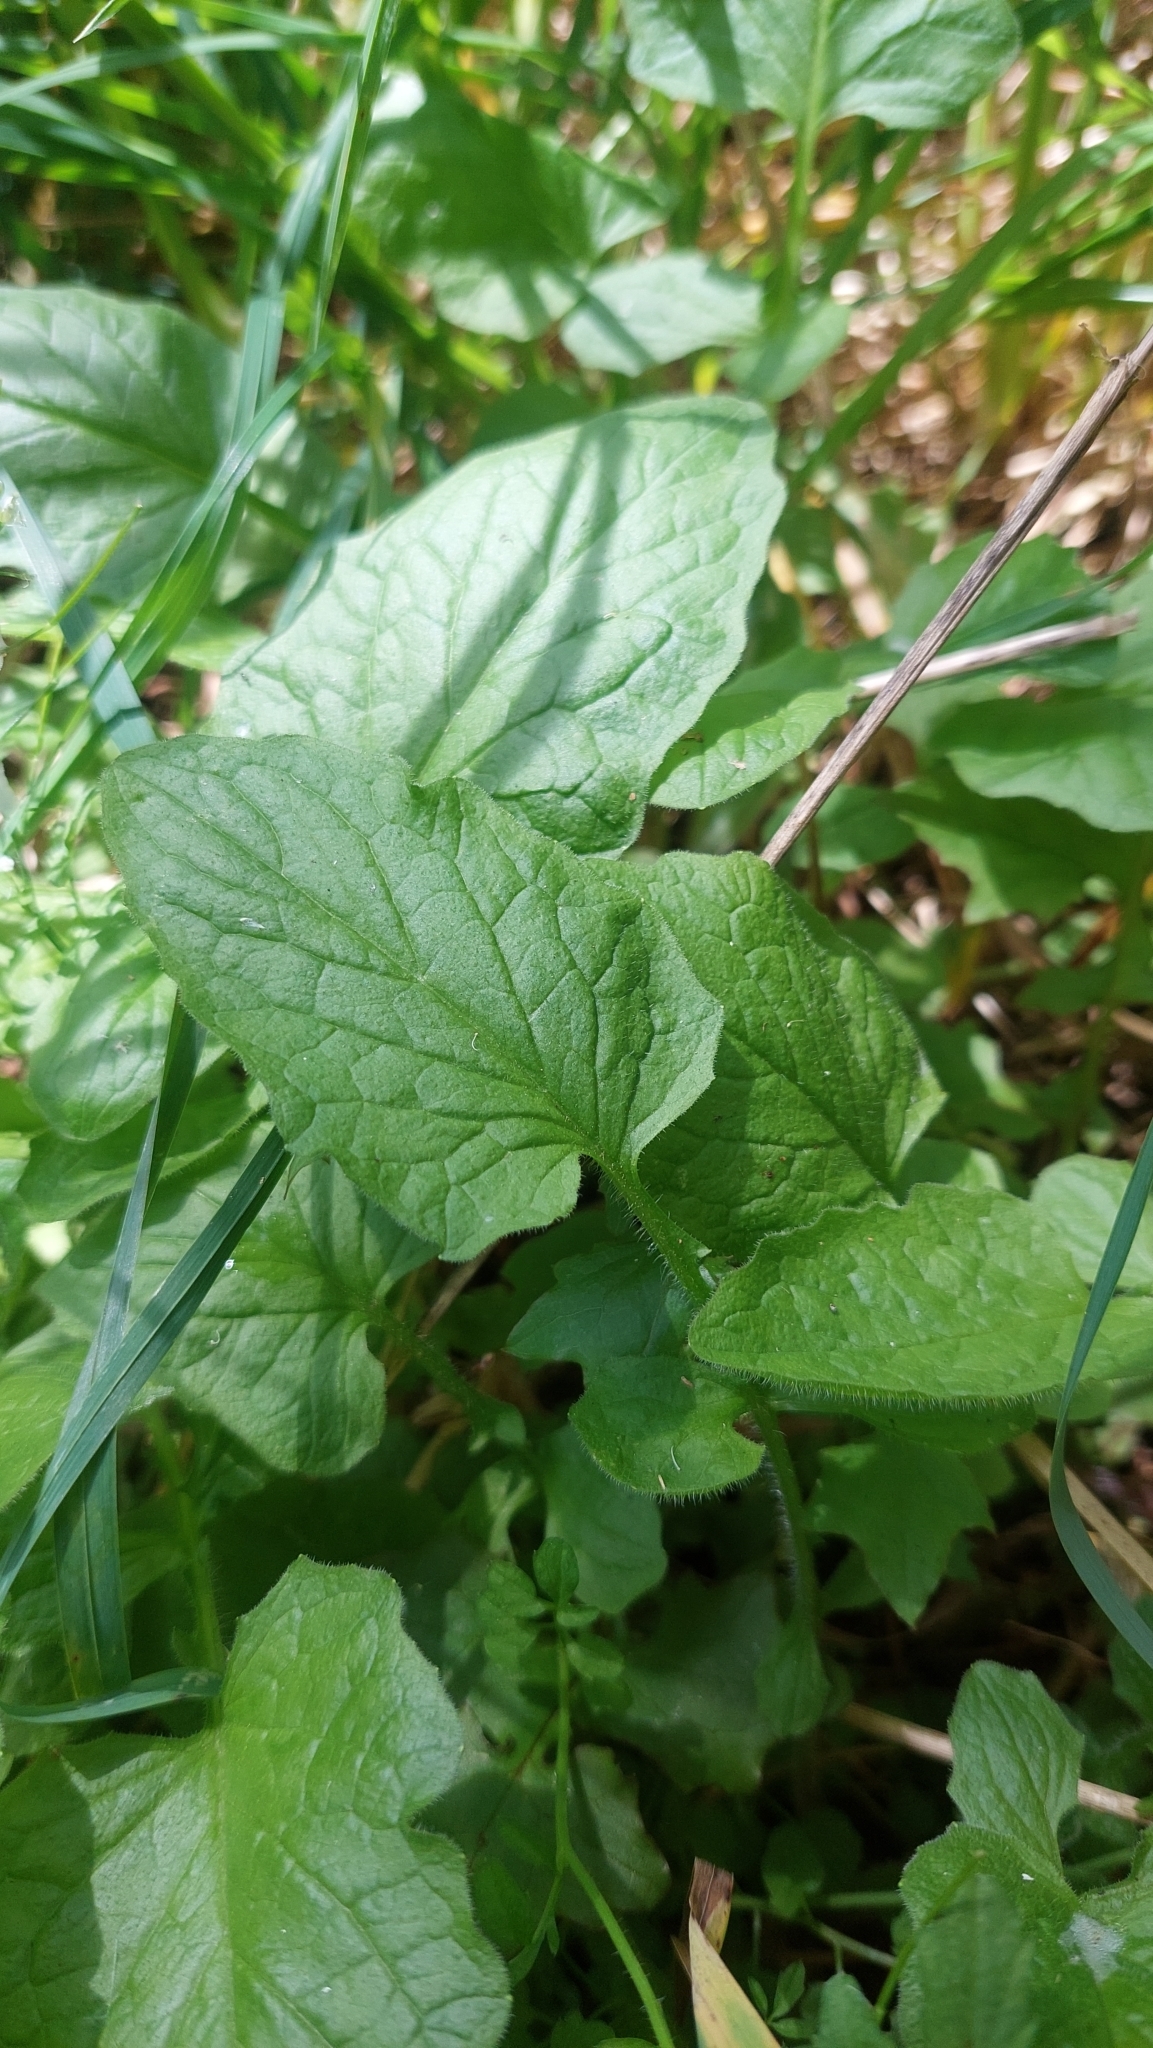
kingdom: Plantae
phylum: Tracheophyta
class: Magnoliopsida
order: Asterales
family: Asteraceae
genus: Lapsana
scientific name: Lapsana communis
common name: Nipplewort
